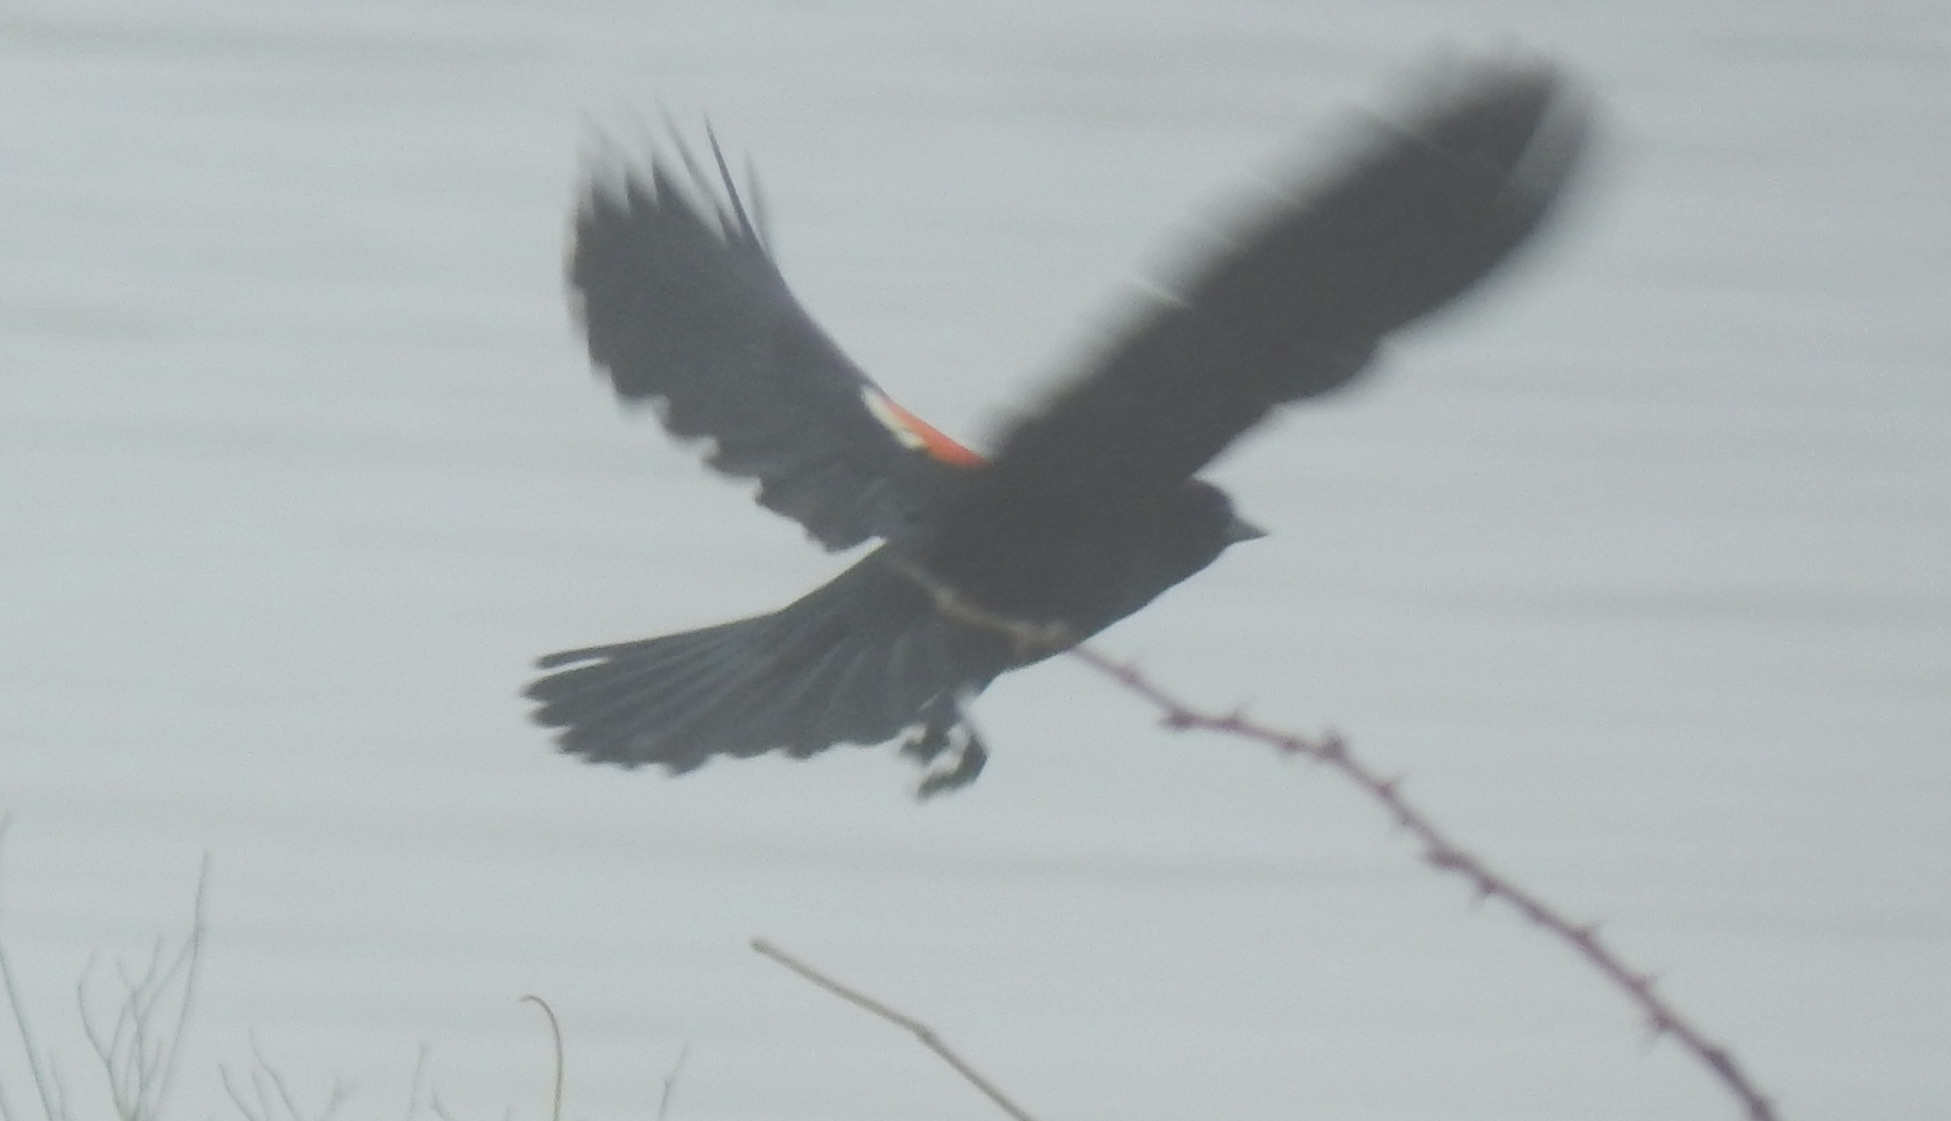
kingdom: Animalia
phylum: Chordata
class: Aves
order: Passeriformes
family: Icteridae
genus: Agelaius
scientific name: Agelaius phoeniceus
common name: Red-winged blackbird
